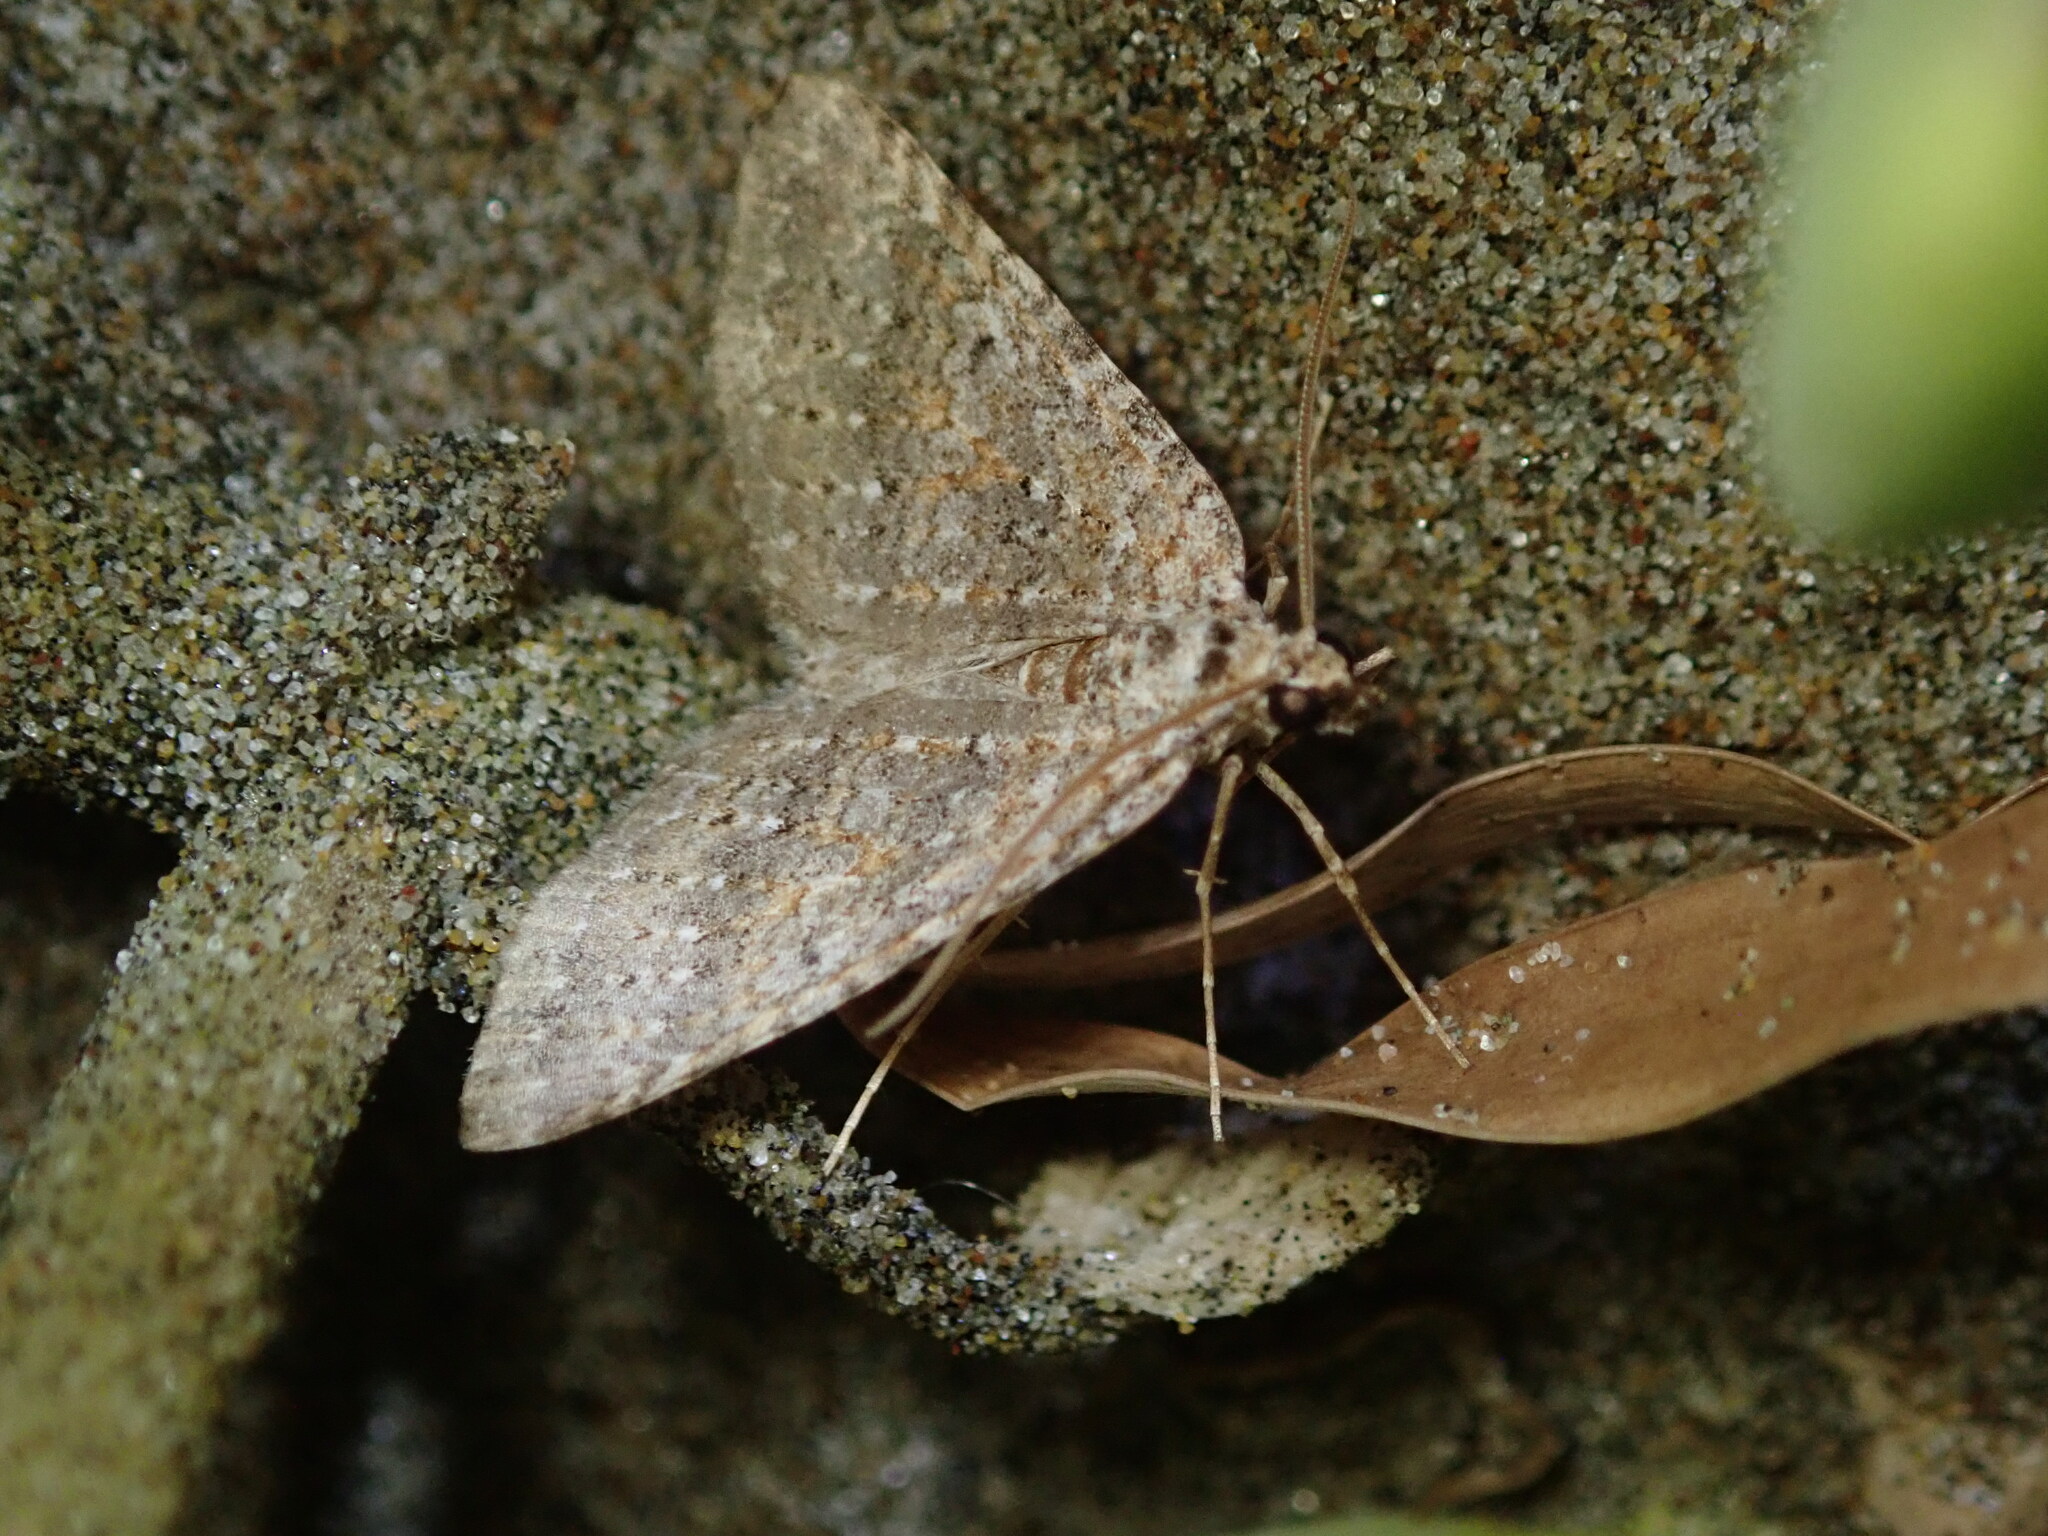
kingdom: Animalia
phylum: Arthropoda
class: Insecta
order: Lepidoptera
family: Geometridae
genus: Euphyia
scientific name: Euphyia implicata
